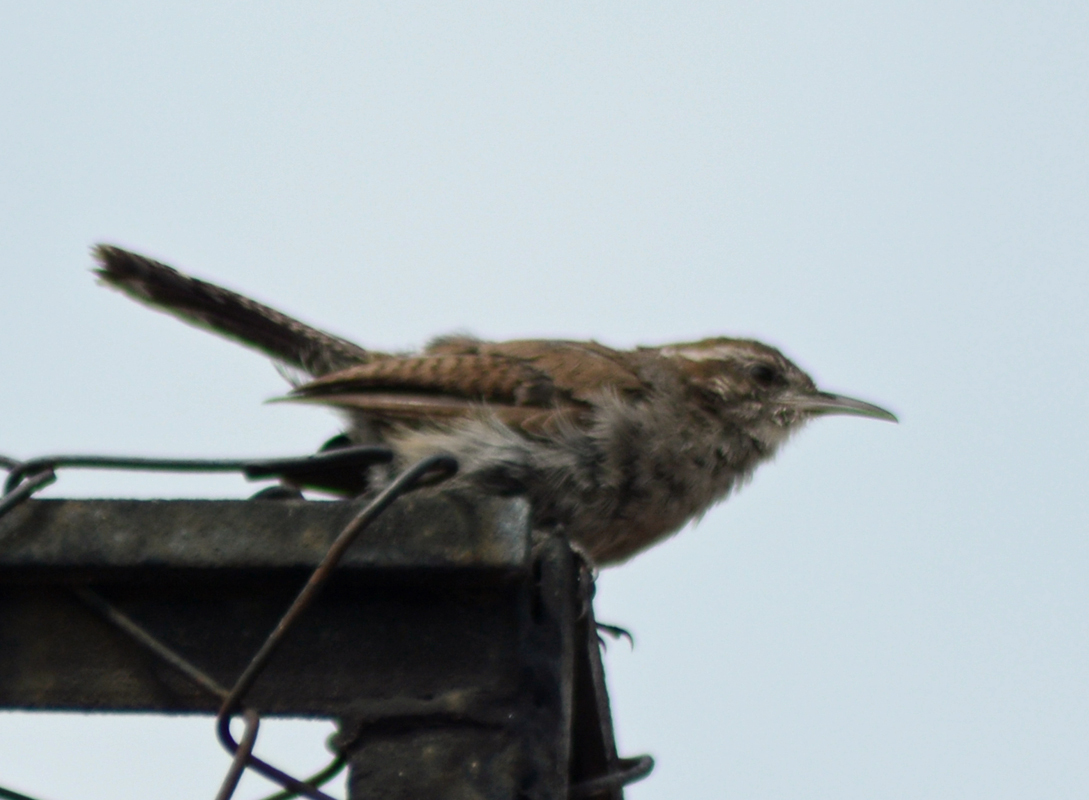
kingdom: Animalia
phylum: Chordata
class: Aves
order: Passeriformes
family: Troglodytidae
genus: Thryomanes
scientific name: Thryomanes bewickii
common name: Bewick's wren
